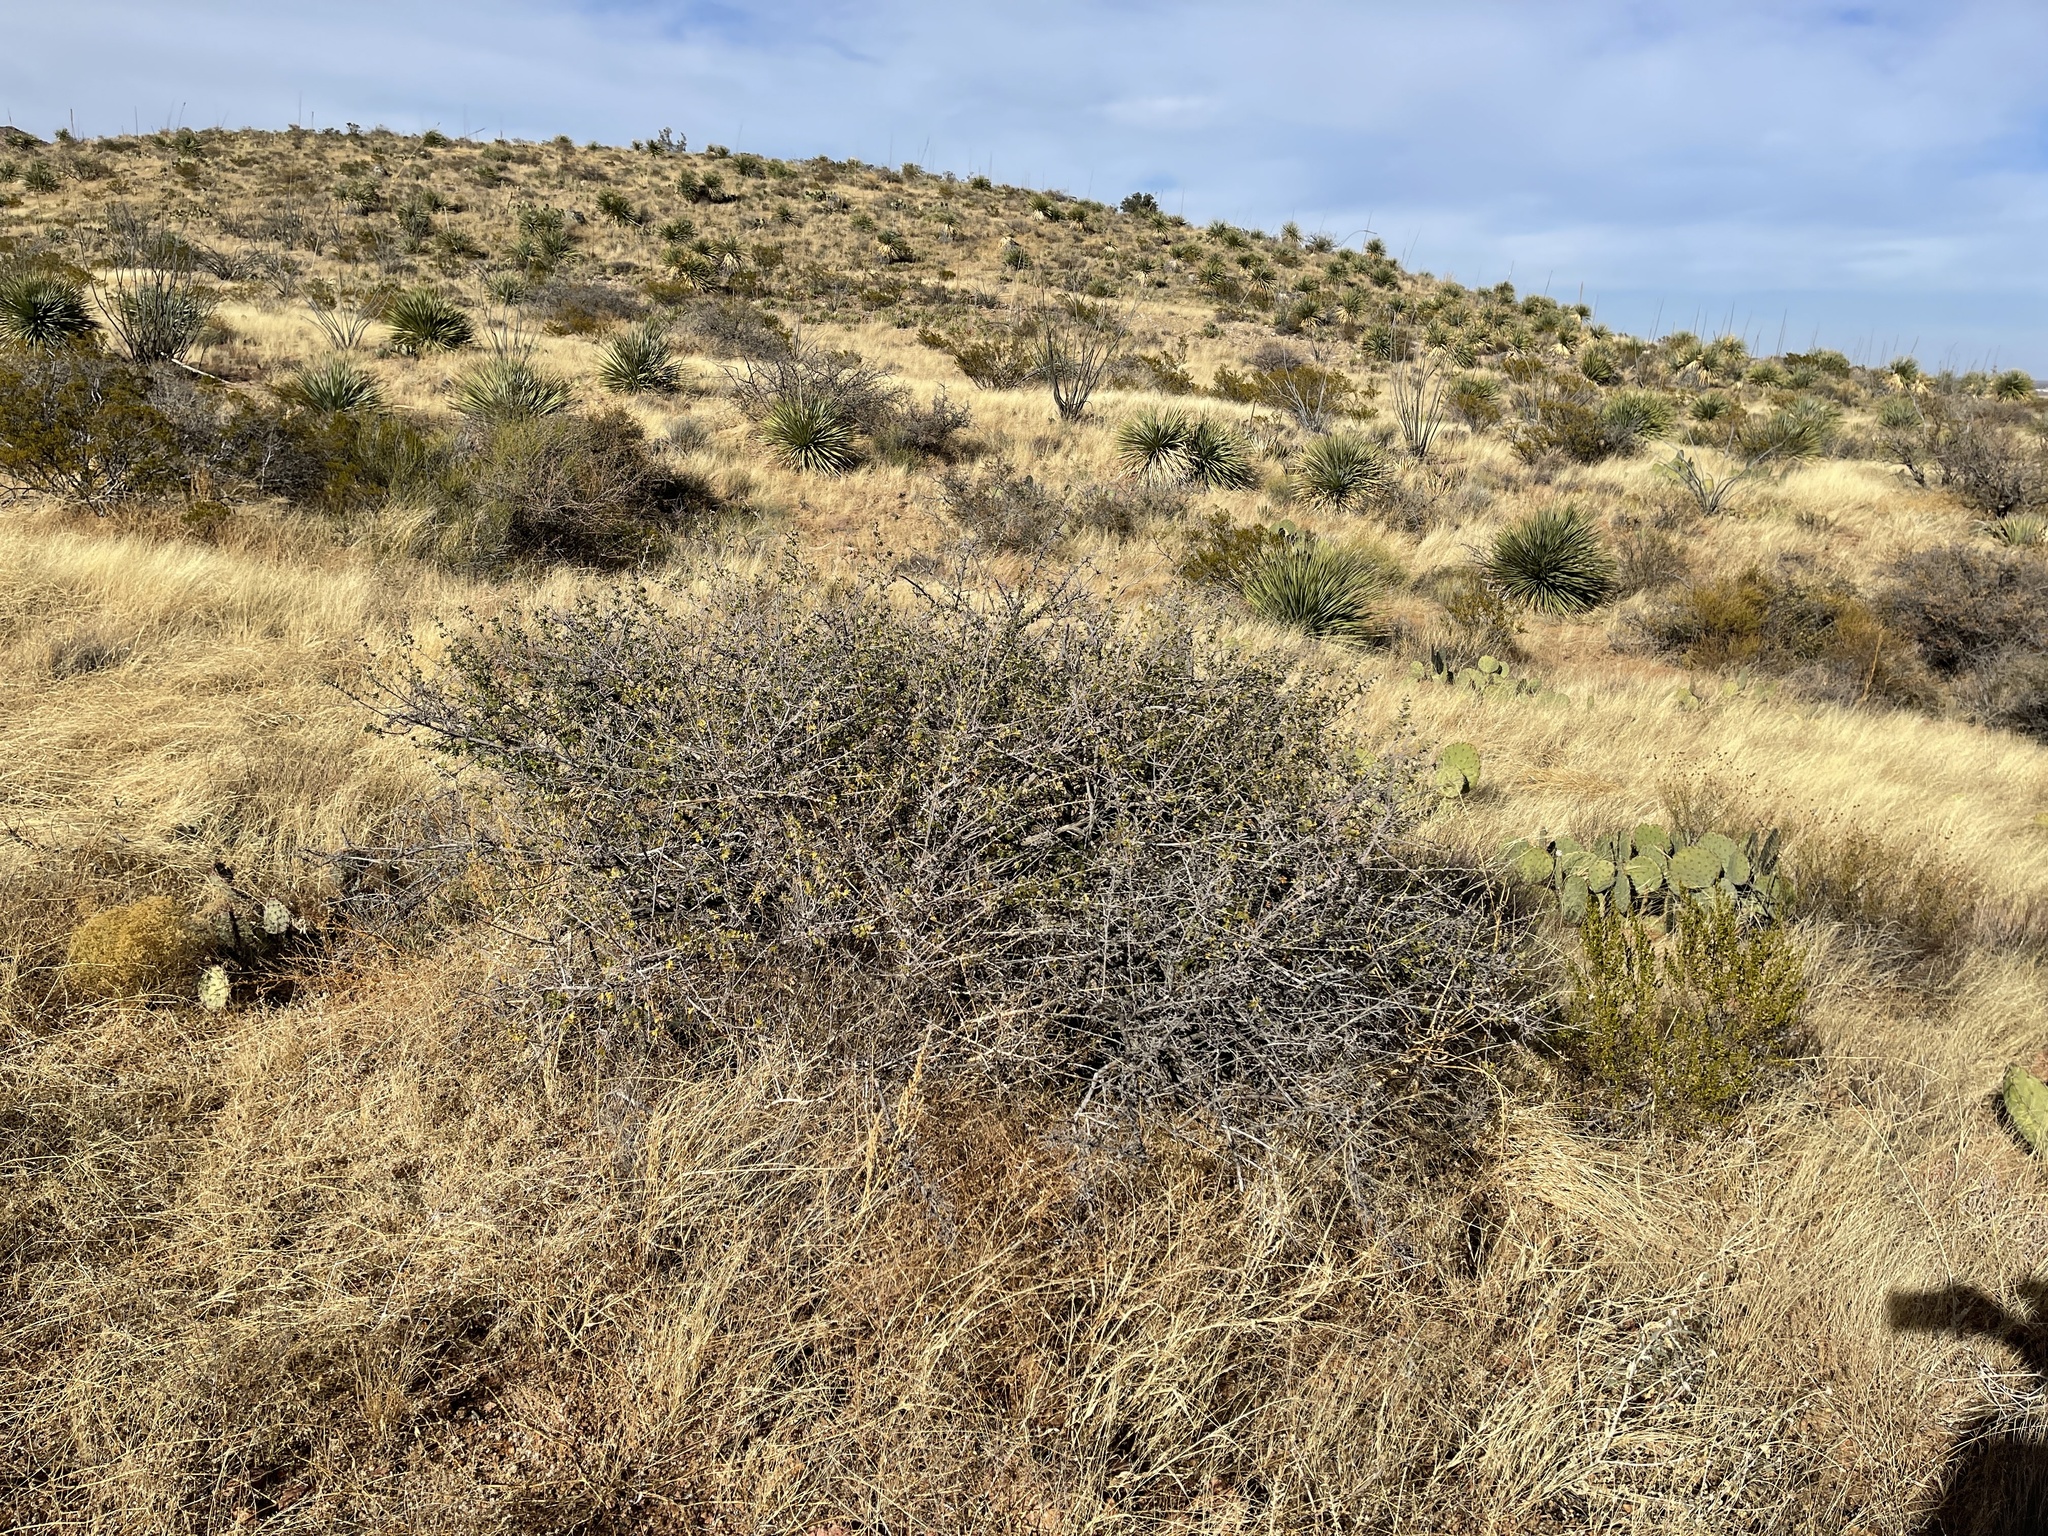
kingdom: Plantae
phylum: Tracheophyta
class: Magnoliopsida
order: Sapindales
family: Anacardiaceae
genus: Rhus
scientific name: Rhus microphylla
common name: Desert sumac
